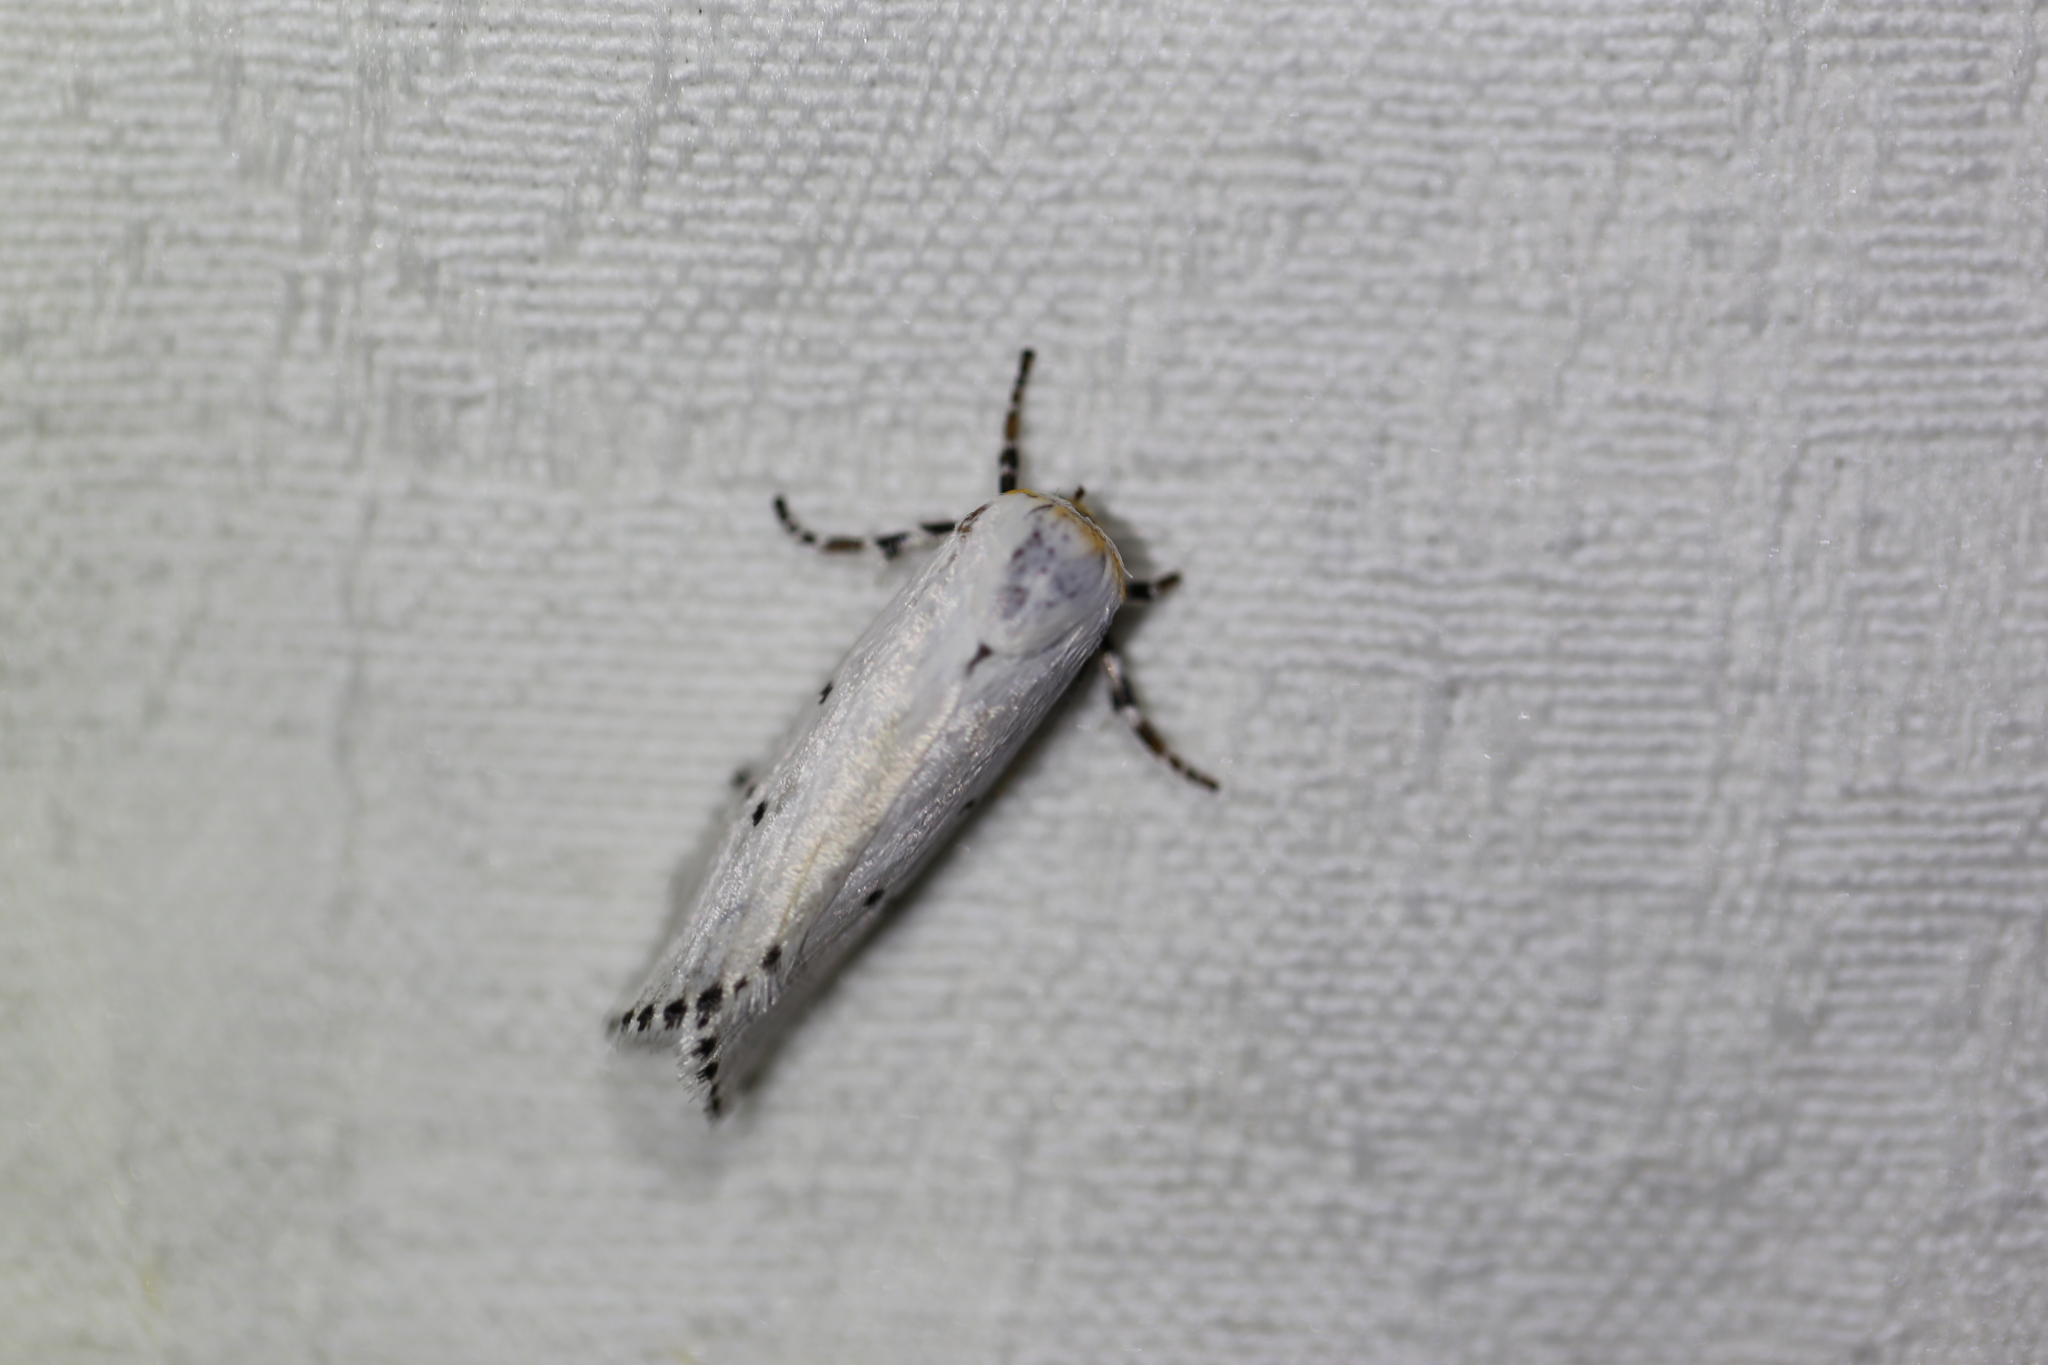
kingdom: Animalia
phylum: Arthropoda
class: Insecta
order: Lepidoptera
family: Xyloryctidae
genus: Cryptophasa
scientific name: Cryptophasa pultenae
